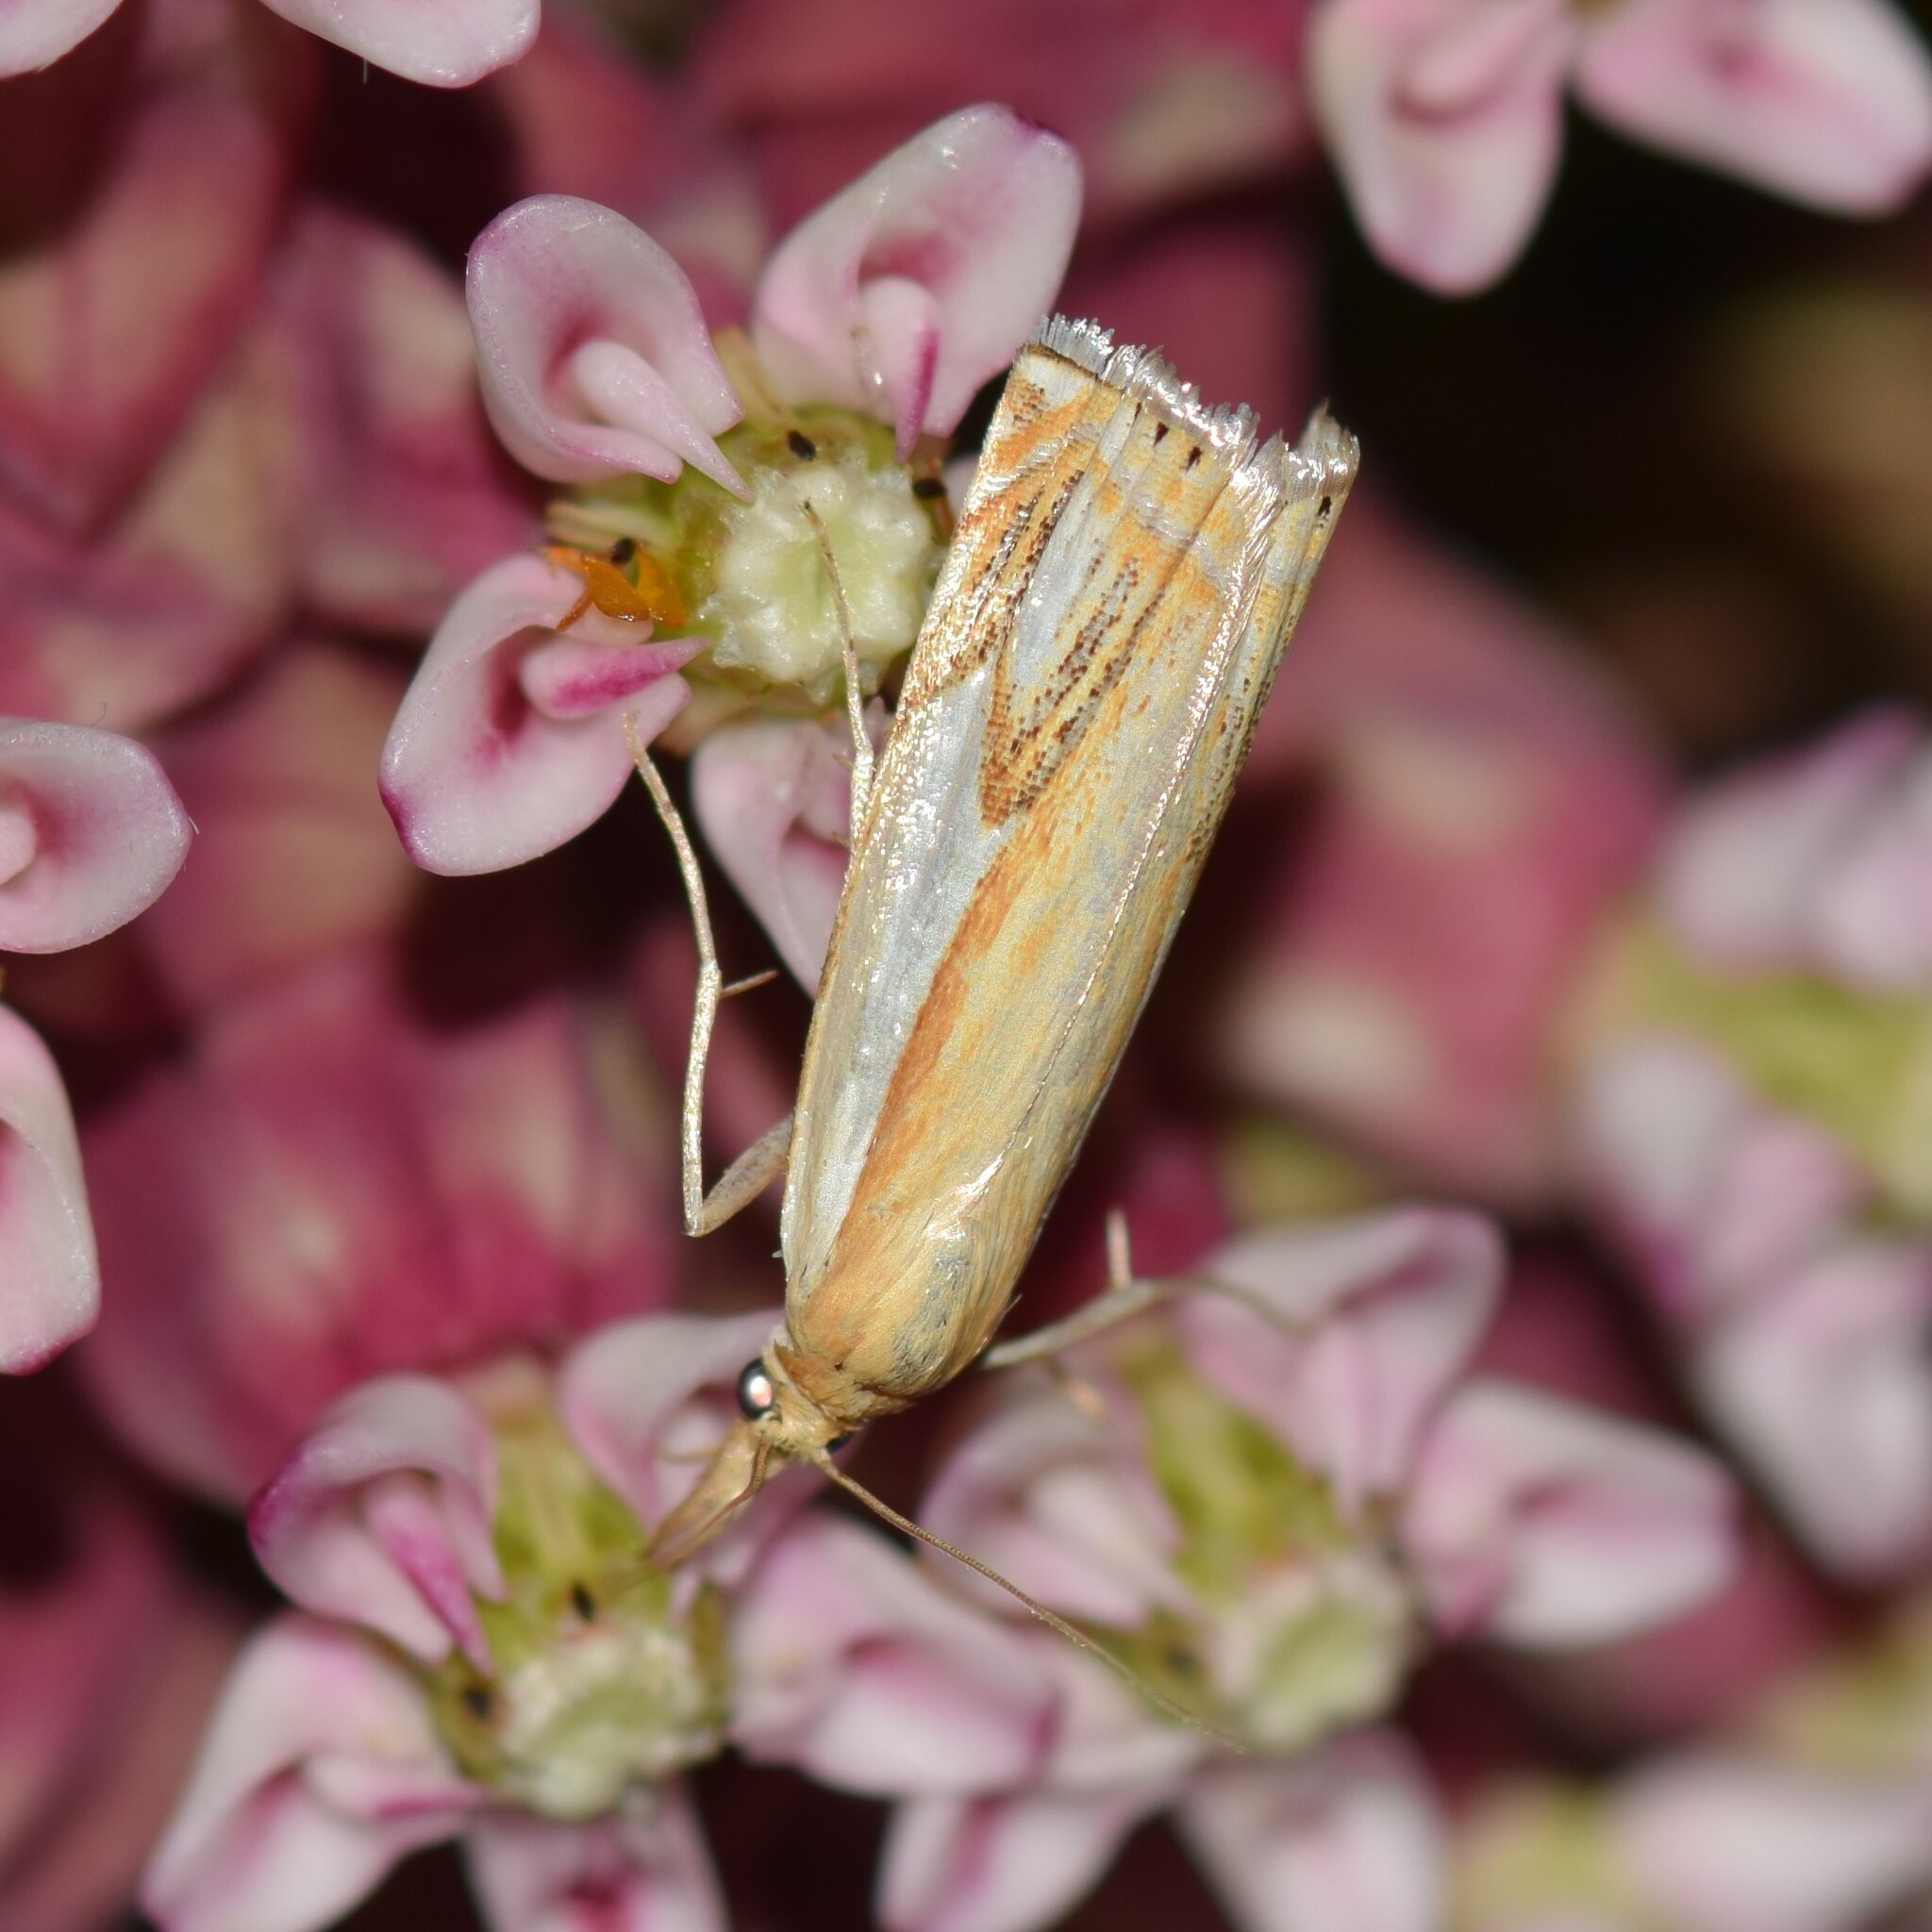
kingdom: Animalia
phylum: Arthropoda
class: Insecta
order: Lepidoptera
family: Crambidae
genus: Crambus
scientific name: Crambus agitatellus
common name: Double-banded grass-veneer
